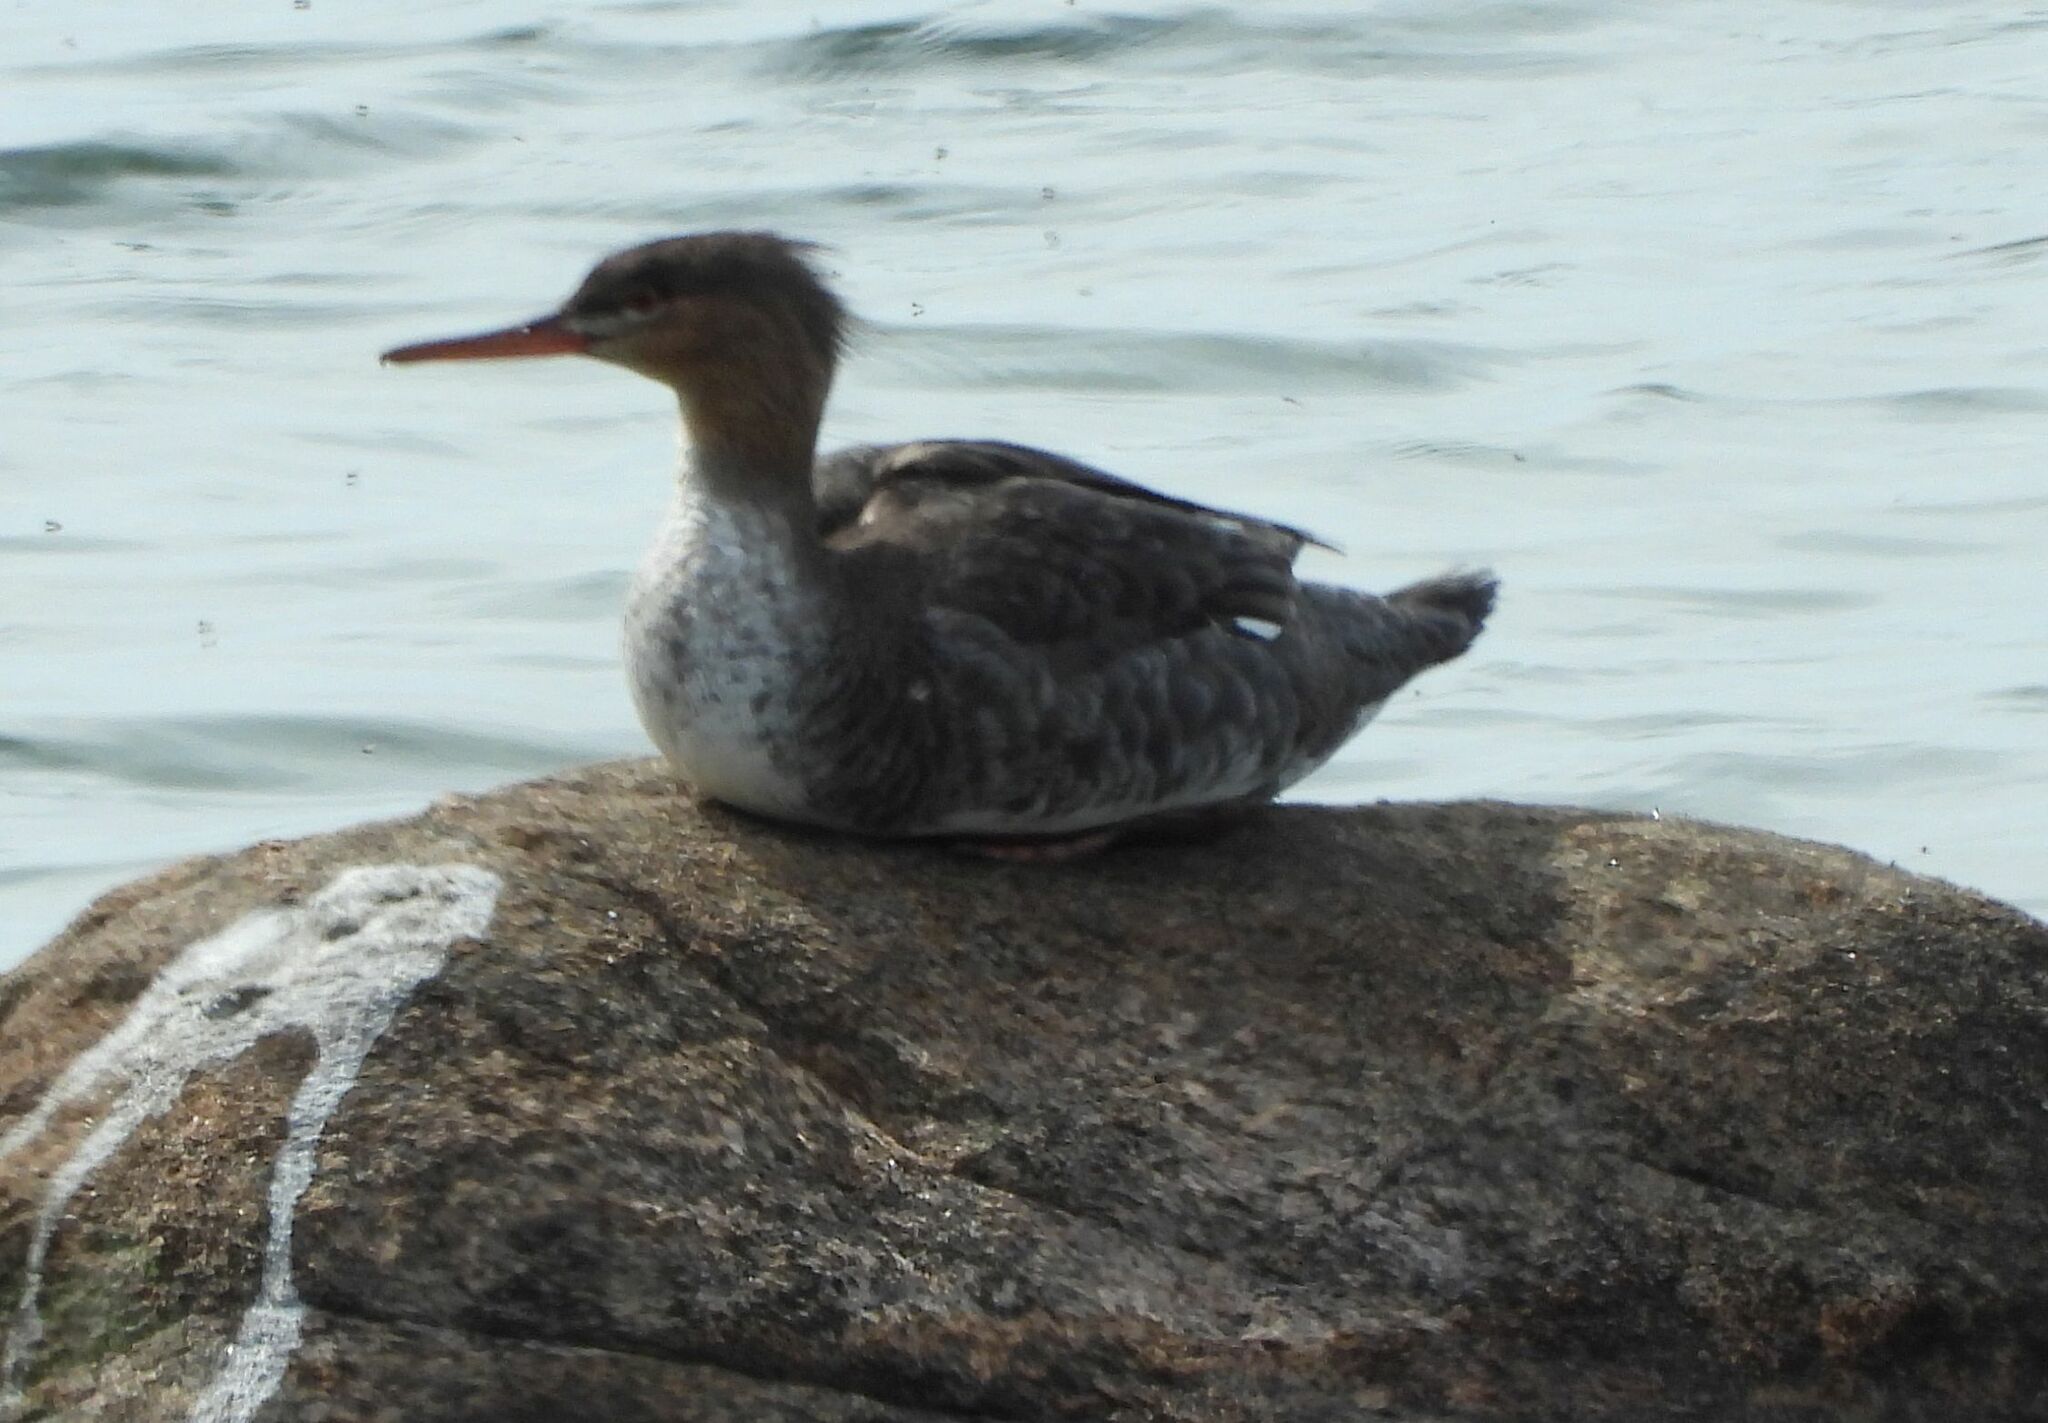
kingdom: Animalia
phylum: Chordata
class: Aves
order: Anseriformes
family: Anatidae
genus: Mergus
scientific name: Mergus serrator
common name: Red-breasted merganser
